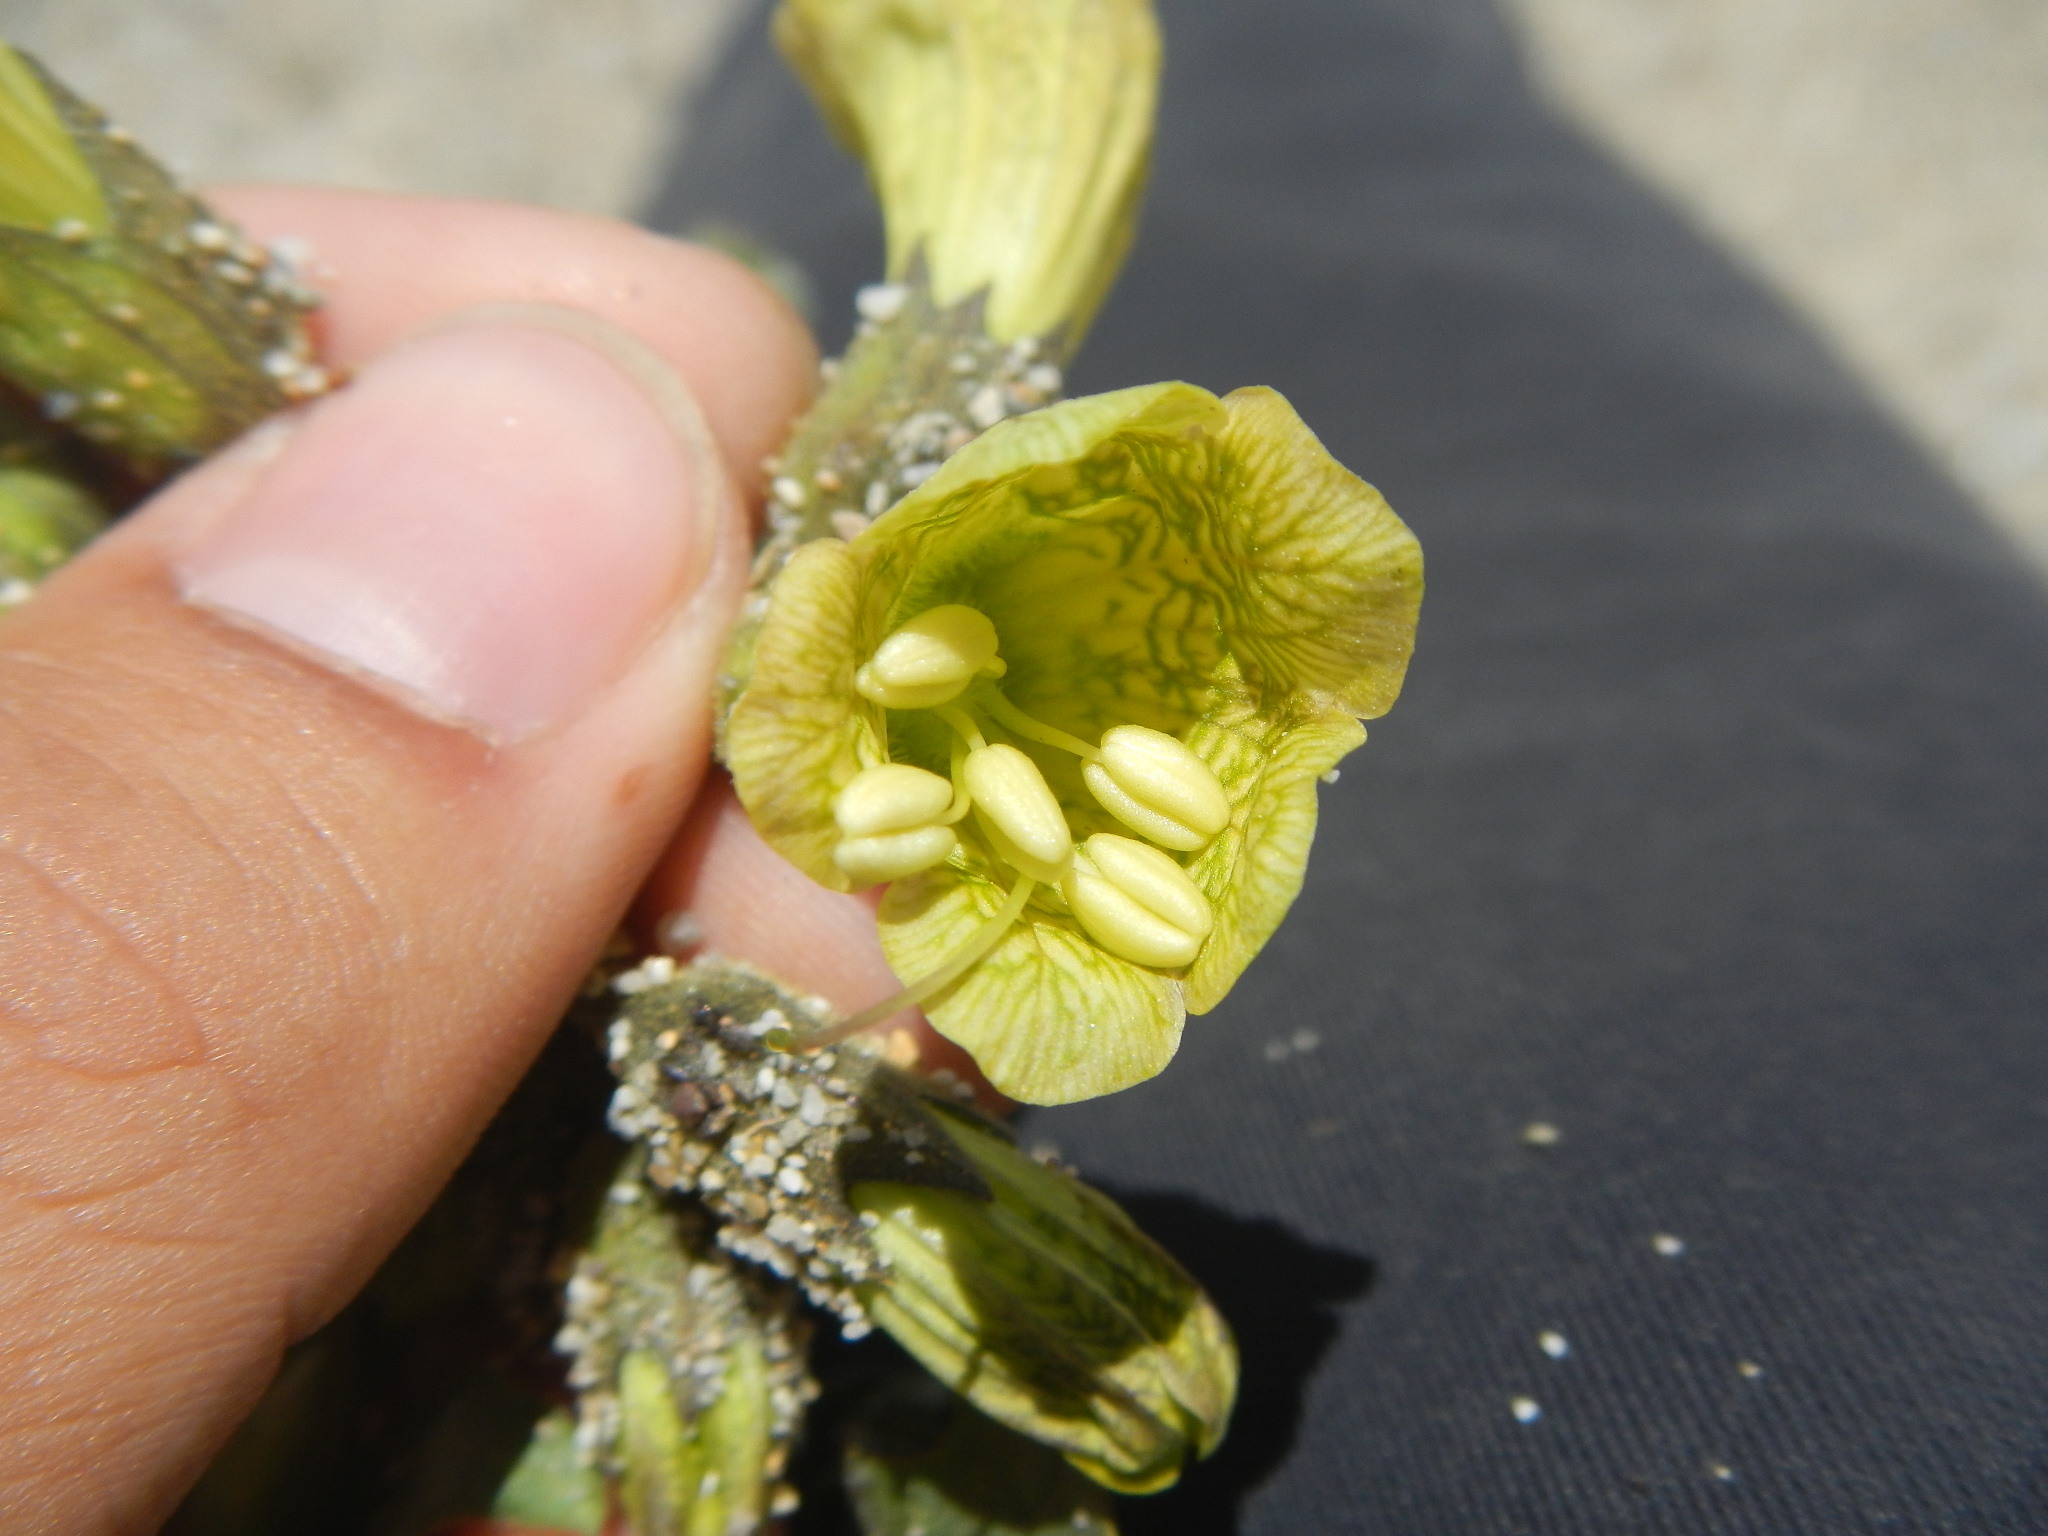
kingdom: Plantae
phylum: Tracheophyta
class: Magnoliopsida
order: Solanales
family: Solanaceae
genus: Physochlaina
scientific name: Physochlaina praealta
